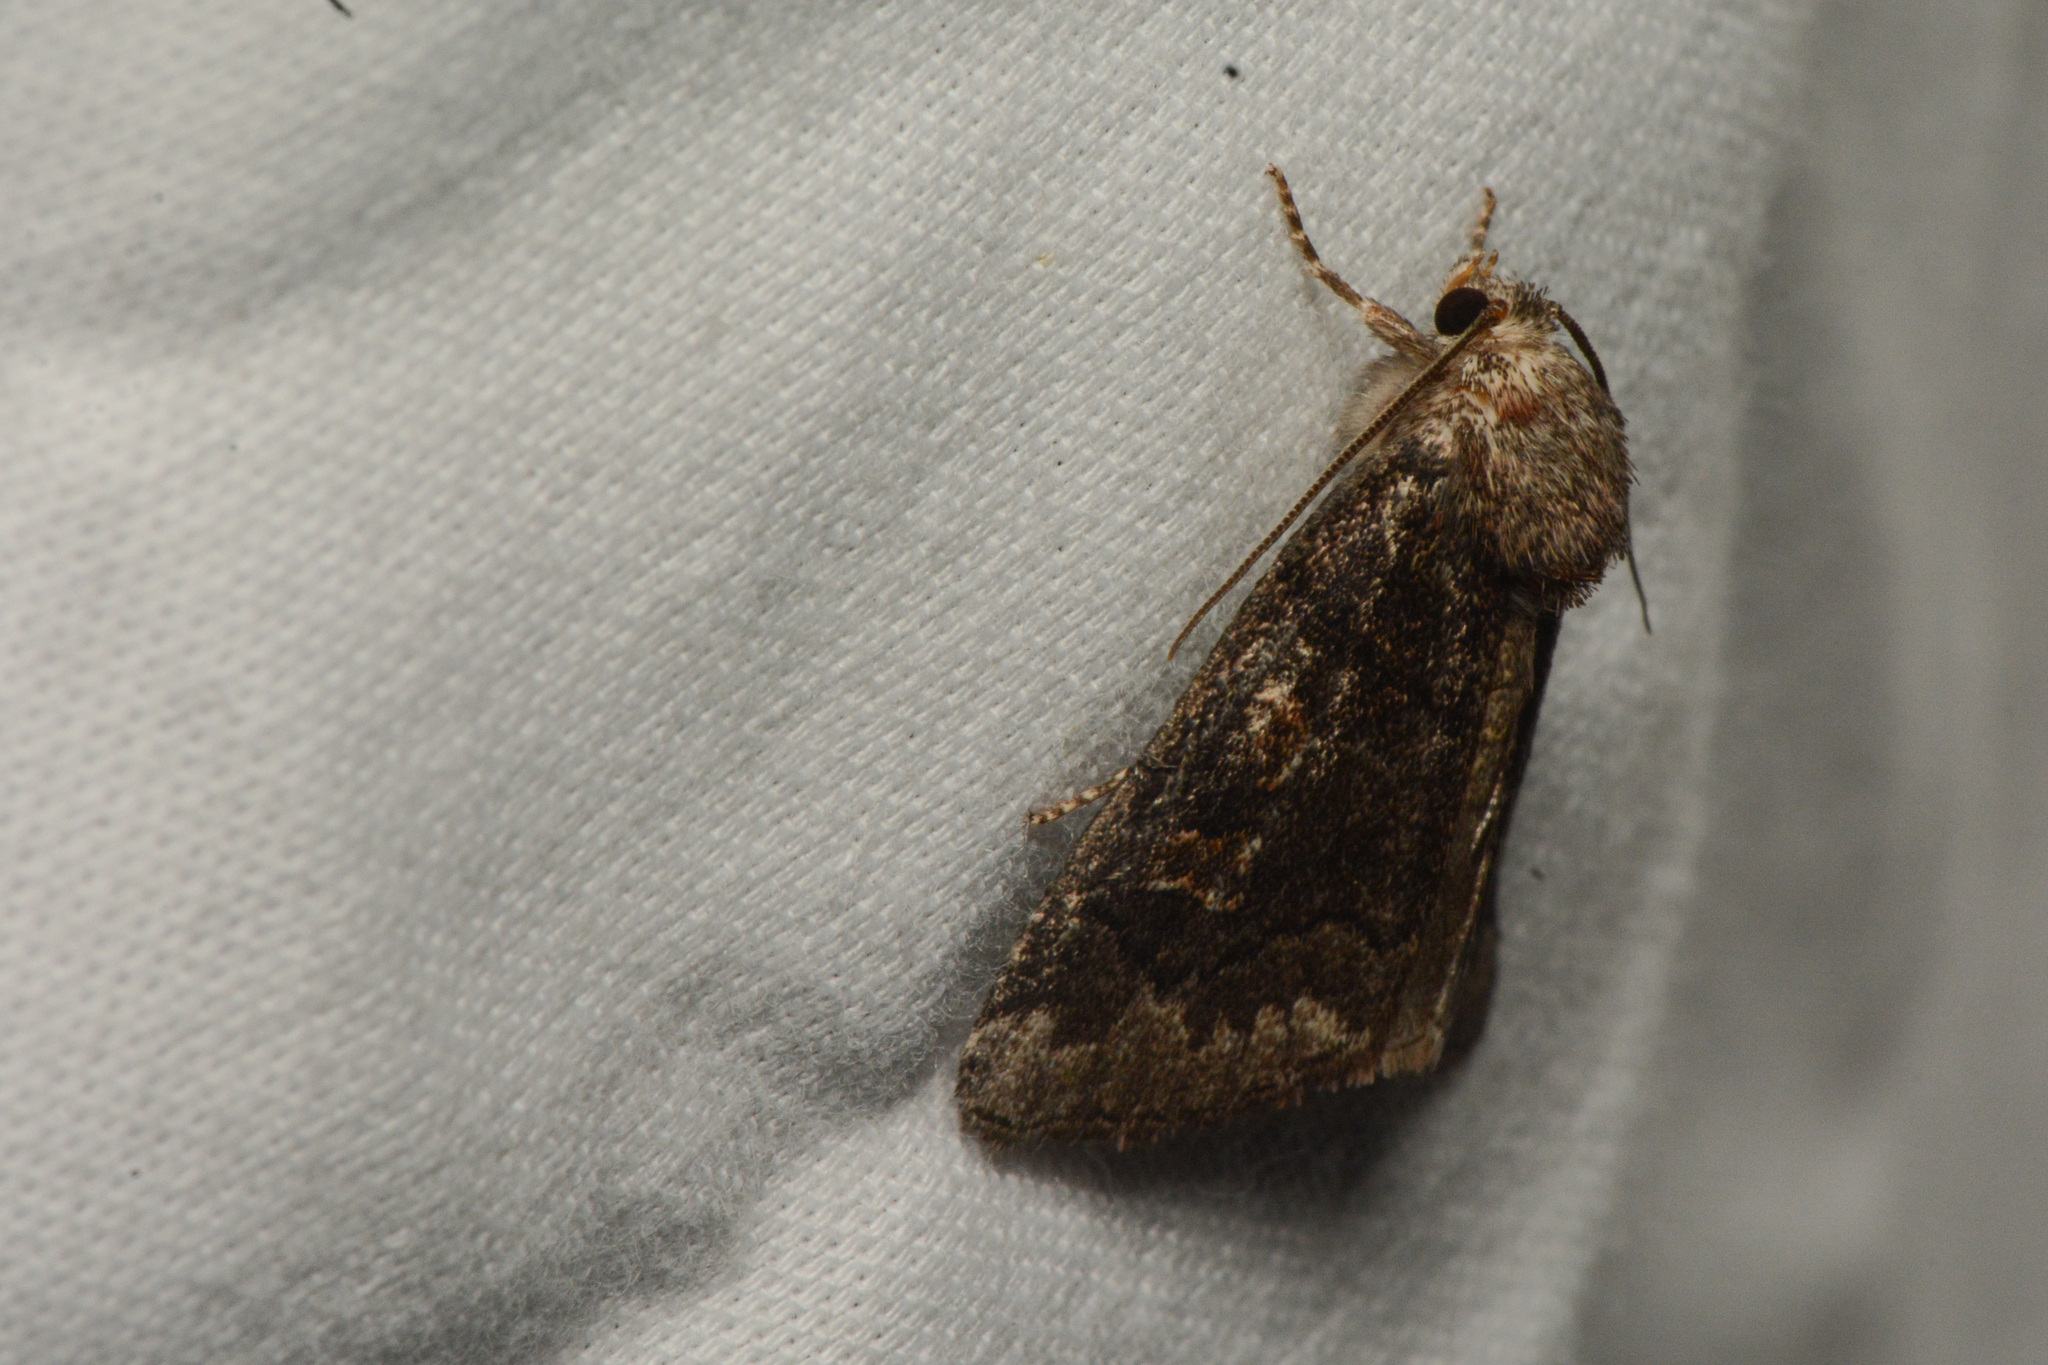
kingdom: Animalia
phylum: Arthropoda
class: Insecta
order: Lepidoptera
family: Noctuidae
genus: Cosmia
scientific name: Cosmia praeacuta
